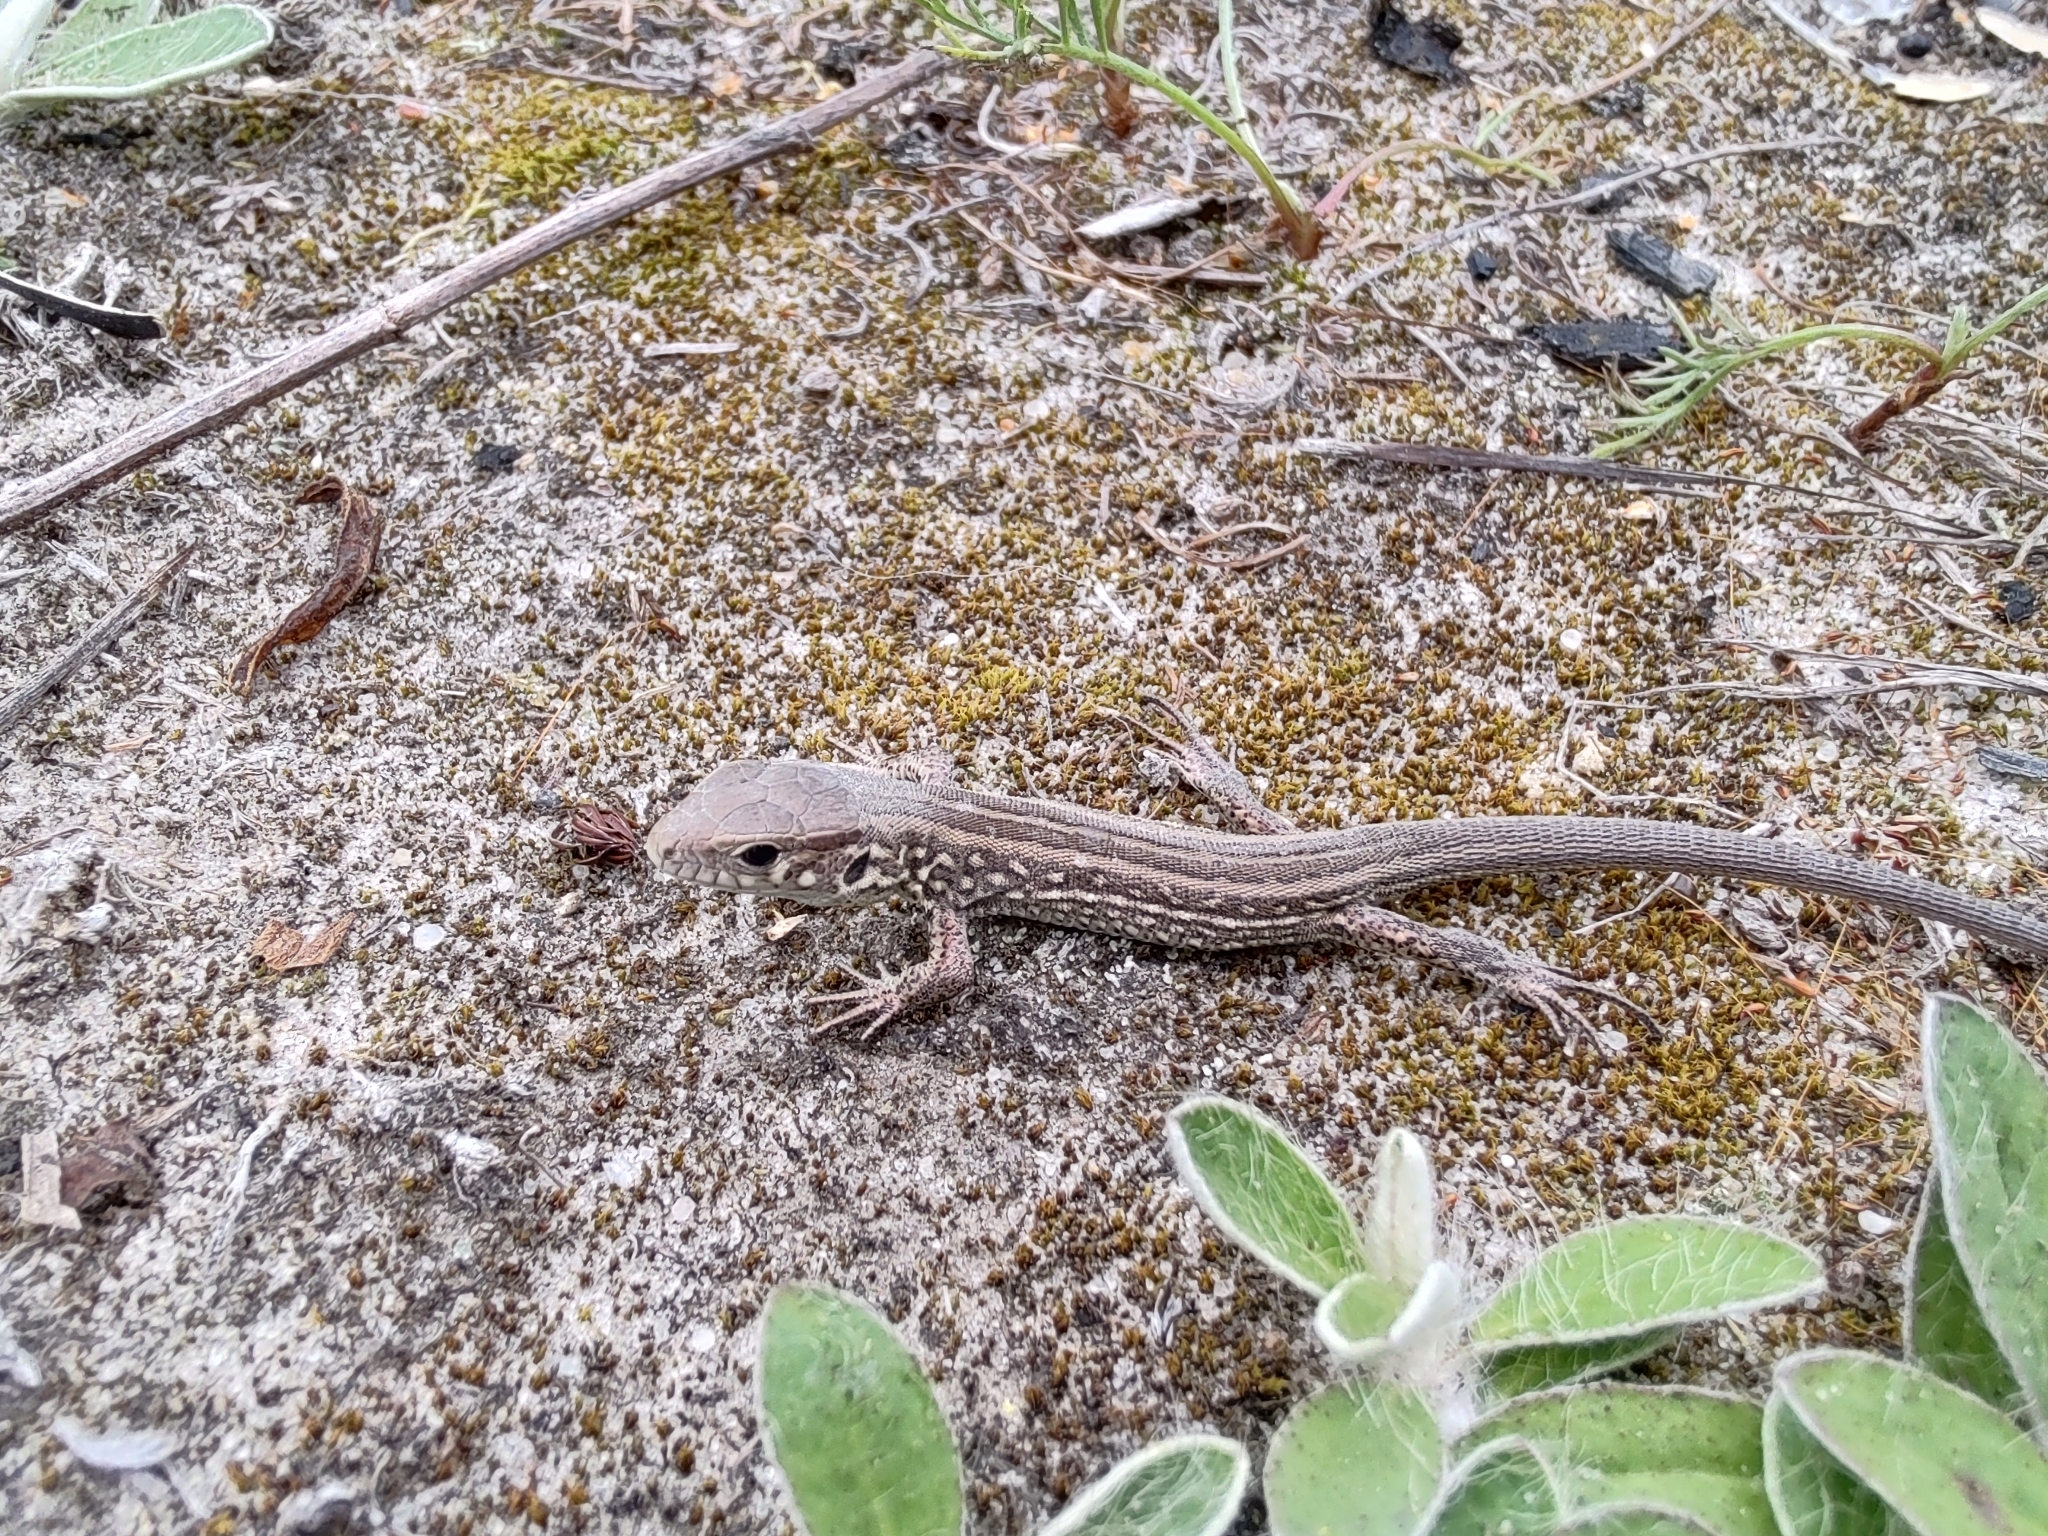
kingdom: Animalia
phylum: Chordata
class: Squamata
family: Lacertidae
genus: Lacerta
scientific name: Lacerta agilis
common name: Sand lizard
